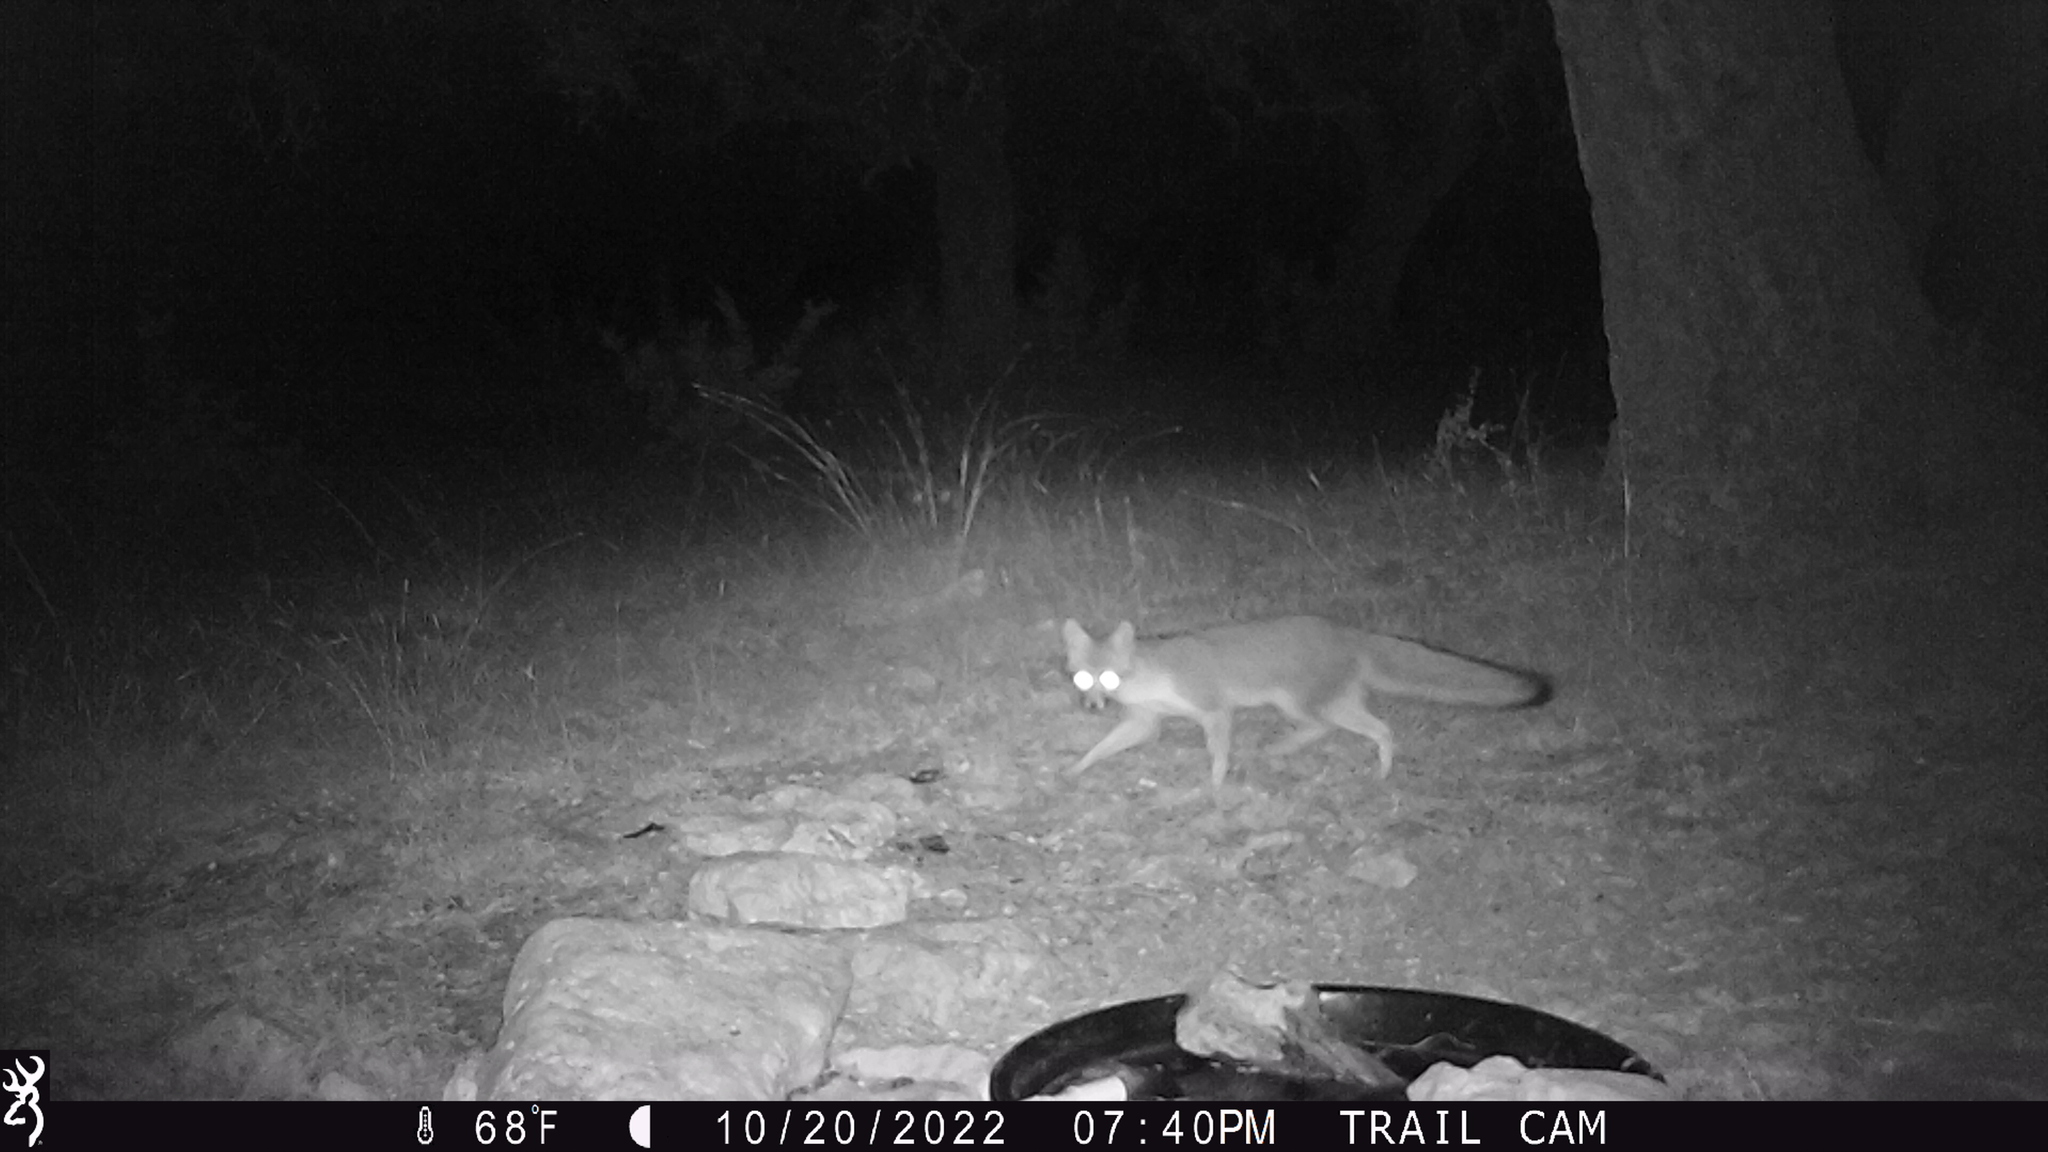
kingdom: Animalia
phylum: Chordata
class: Mammalia
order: Carnivora
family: Canidae
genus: Urocyon
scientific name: Urocyon cinereoargenteus
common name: Gray fox
